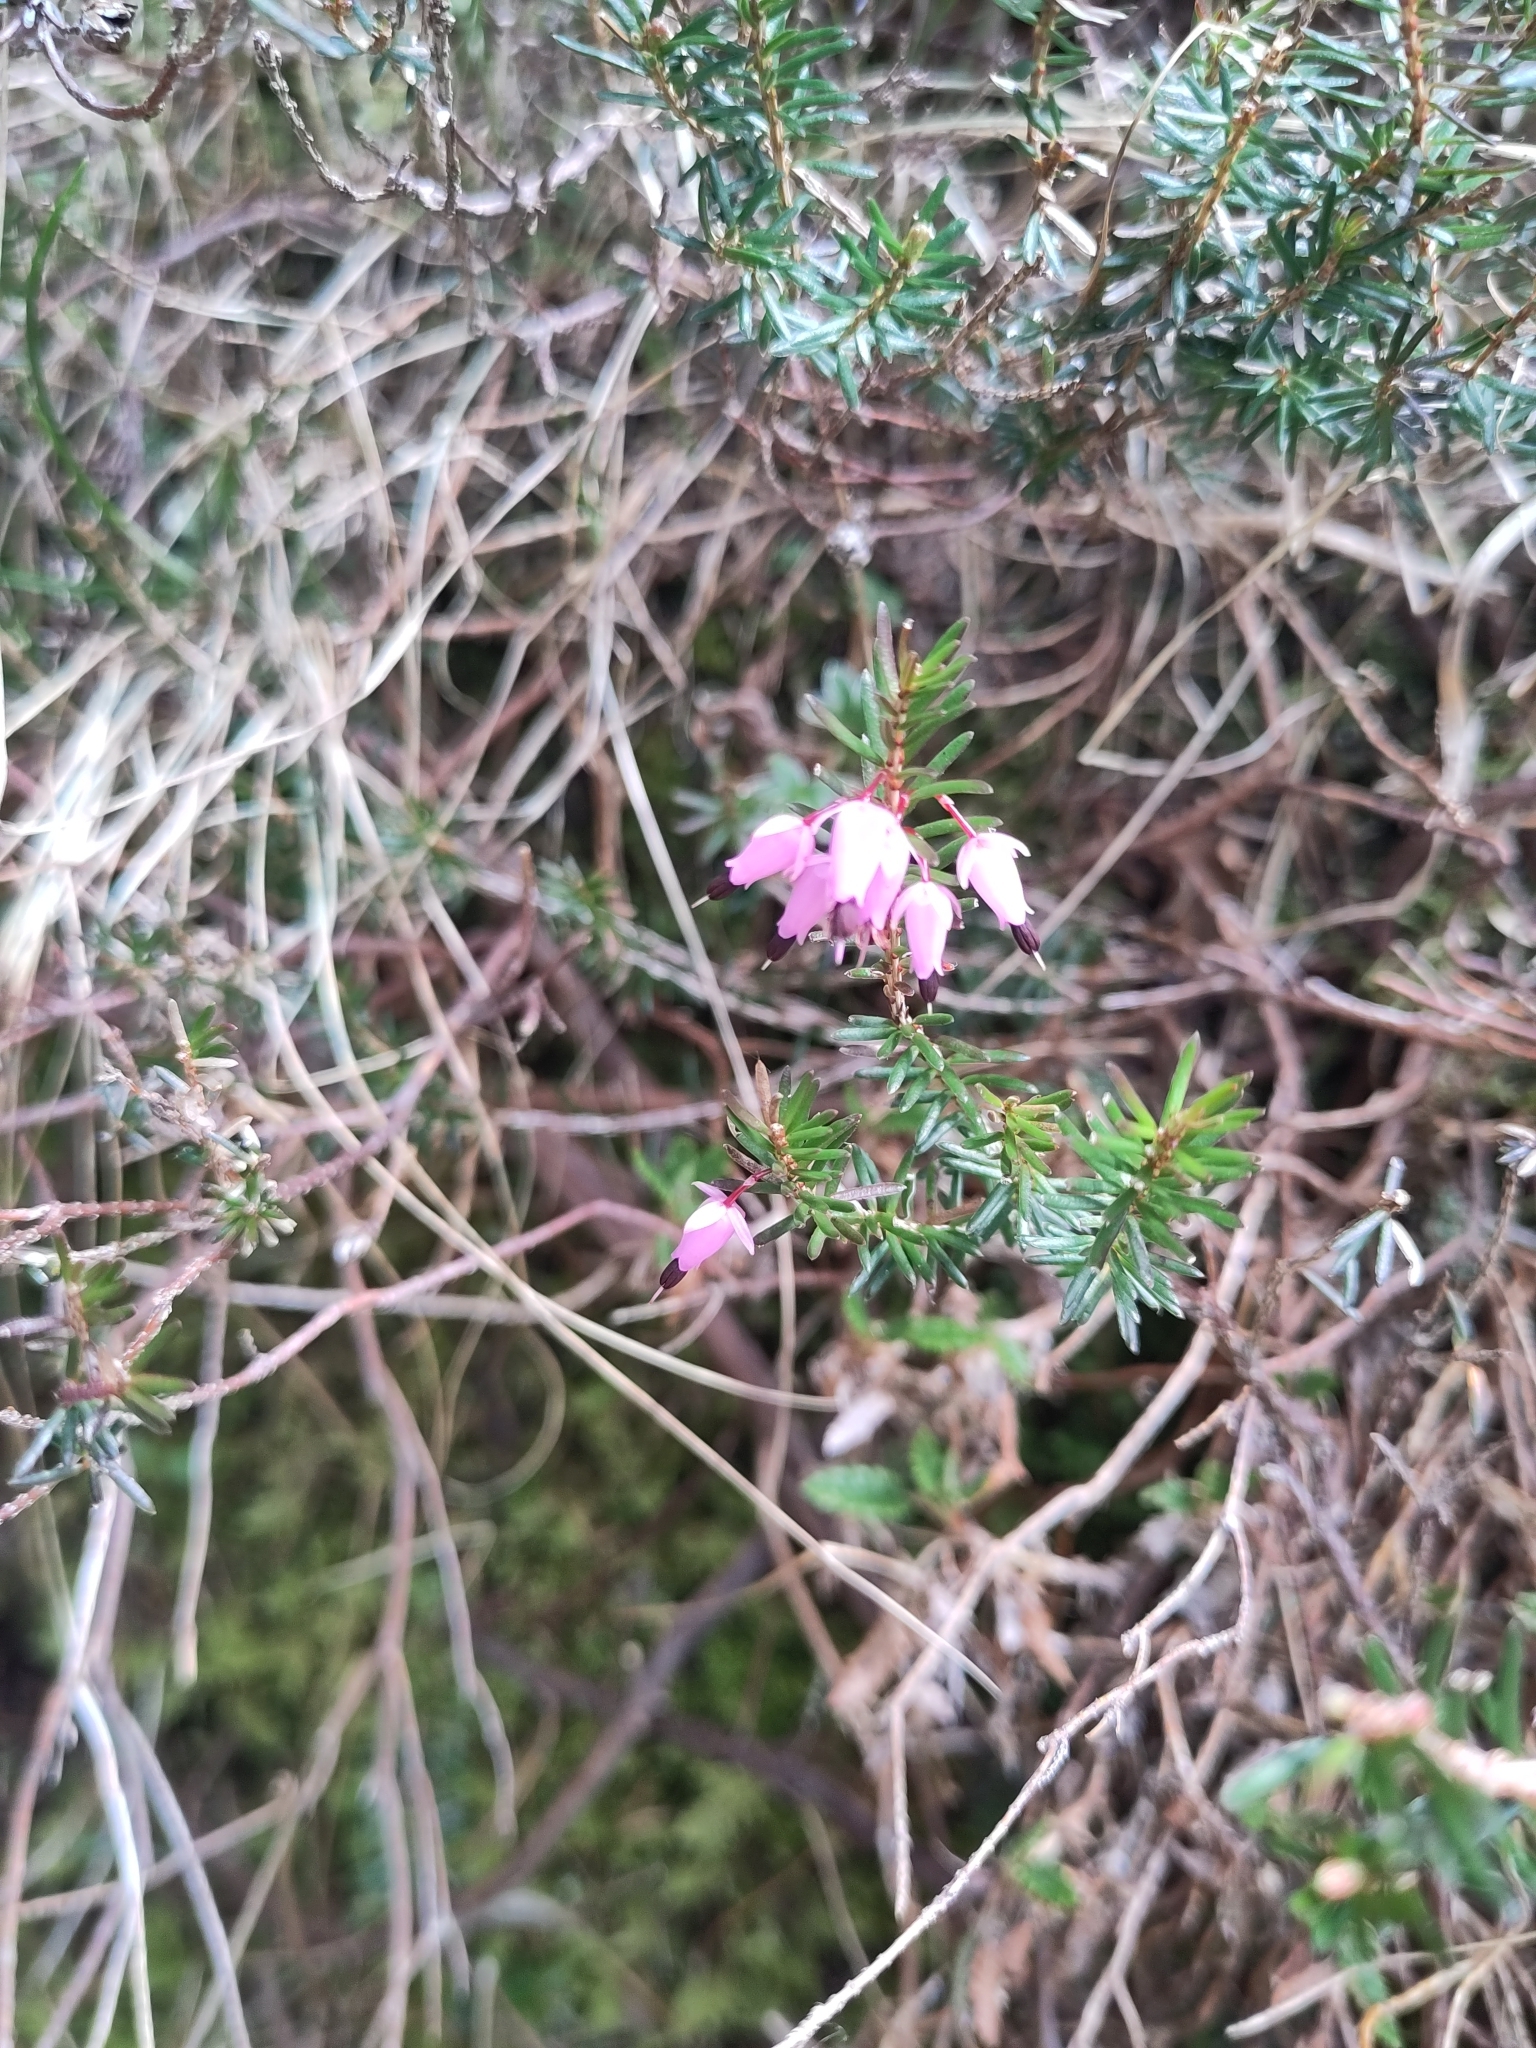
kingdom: Plantae
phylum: Tracheophyta
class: Magnoliopsida
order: Ericales
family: Ericaceae
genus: Erica
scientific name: Erica carnea
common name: Winter heath
